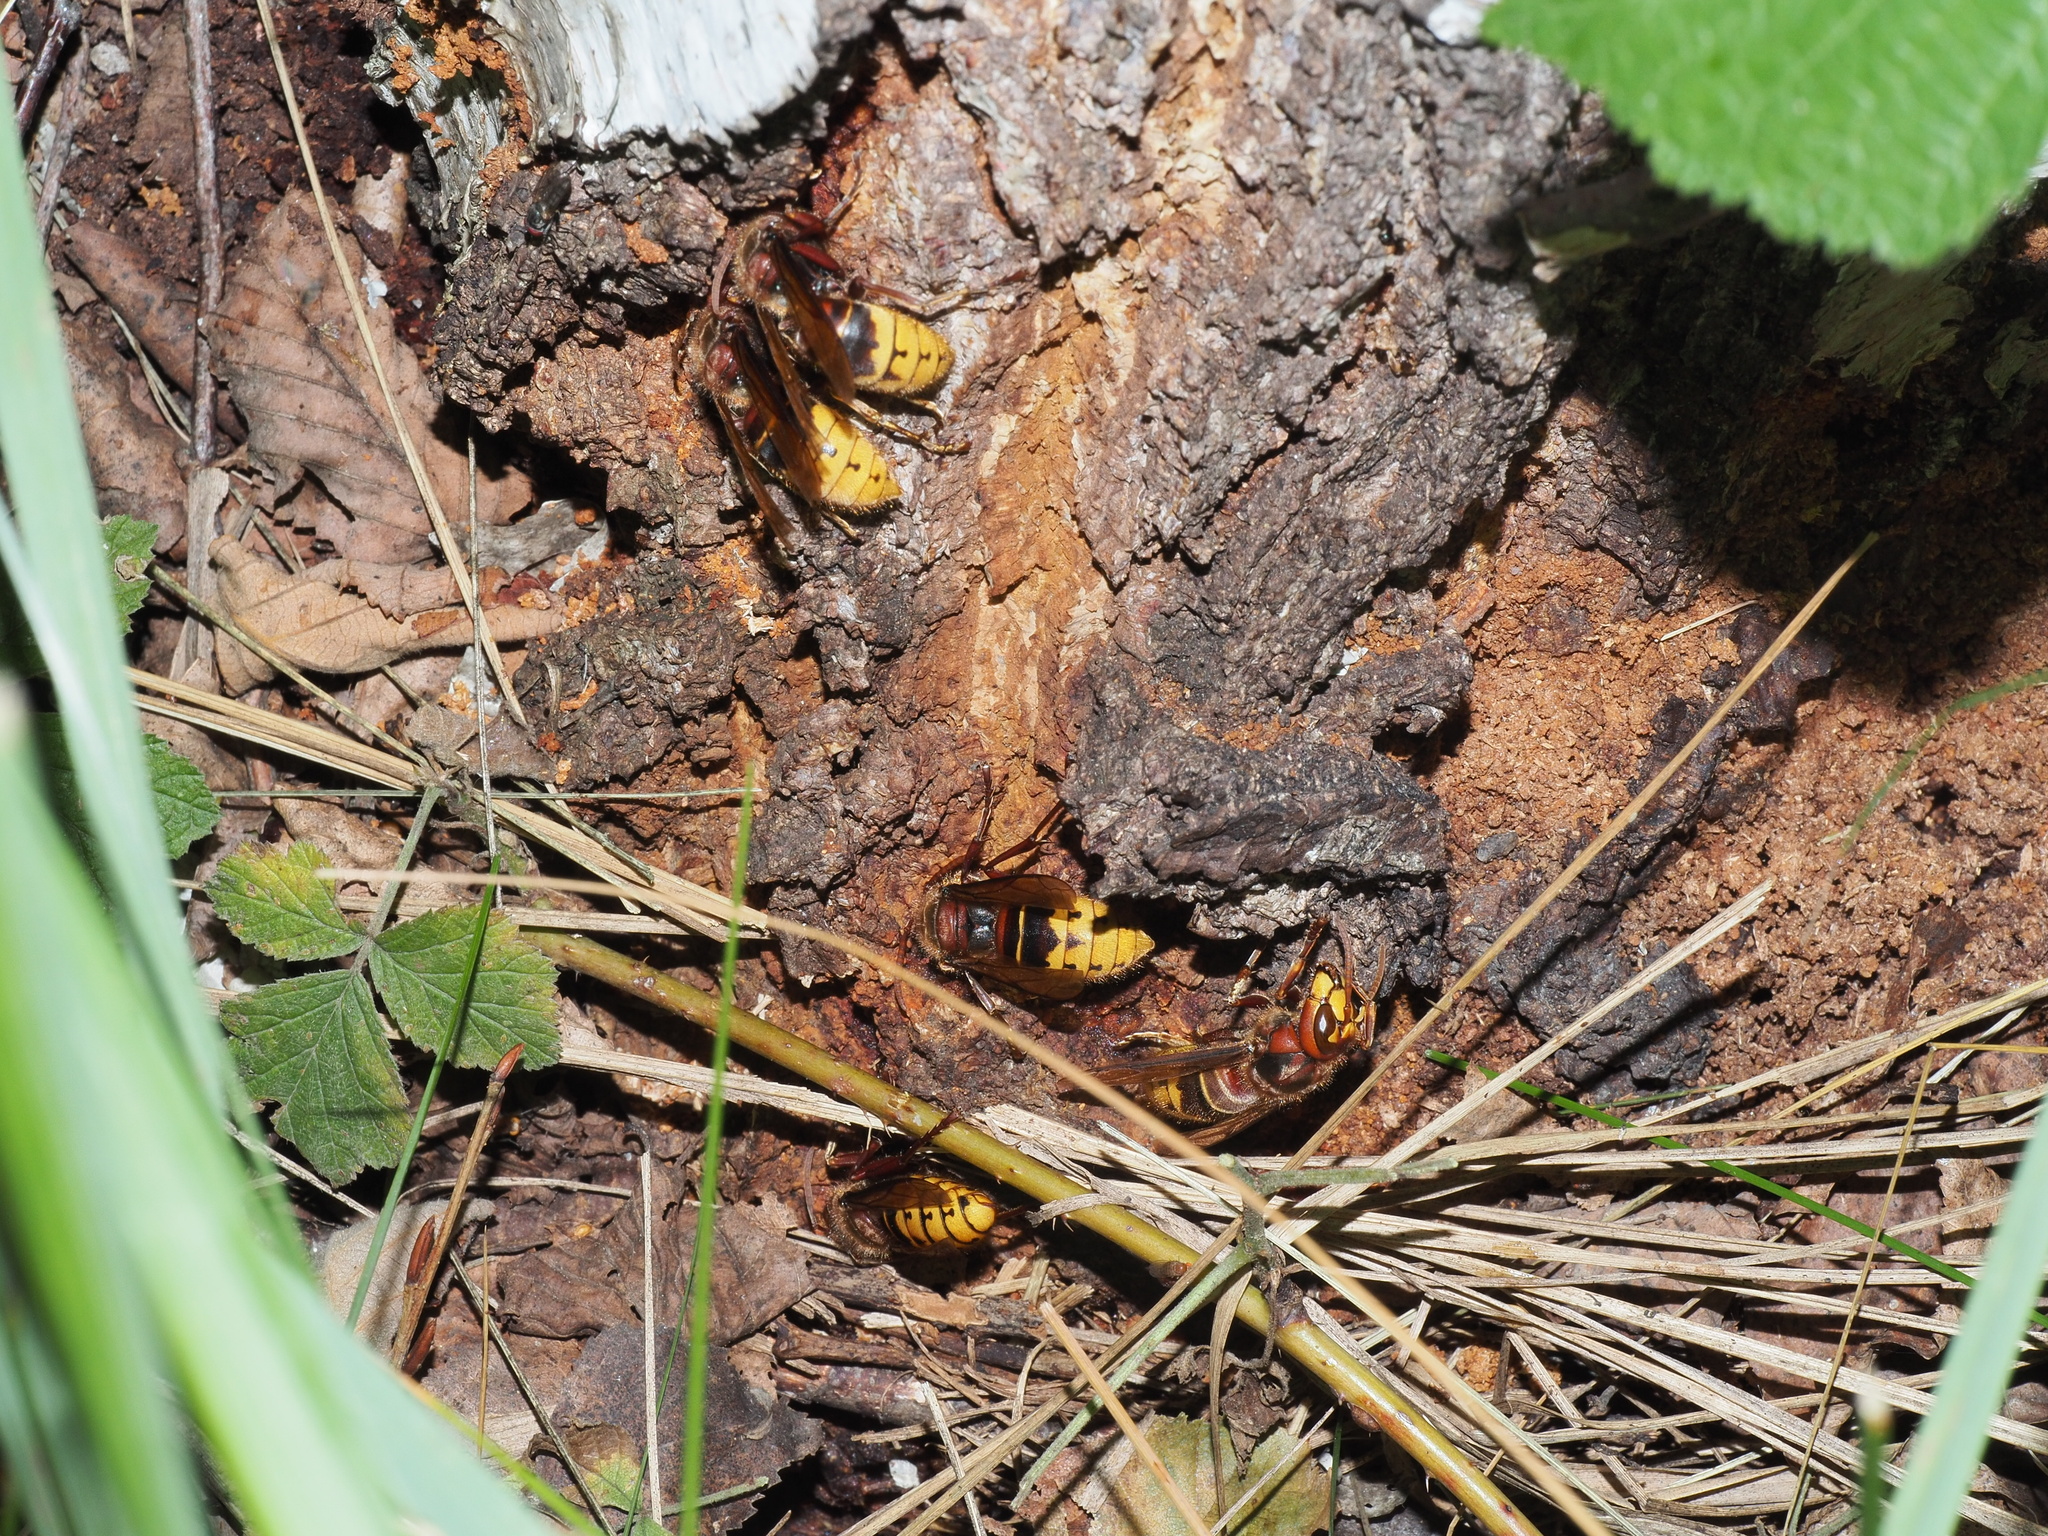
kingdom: Animalia
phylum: Arthropoda
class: Insecta
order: Hymenoptera
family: Vespidae
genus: Vespa
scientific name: Vespa crabro
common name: Hornet
